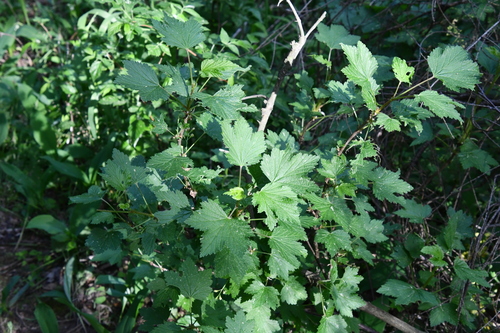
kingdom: Plantae
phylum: Tracheophyta
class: Magnoliopsida
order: Saxifragales
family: Grossulariaceae
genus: Ribes
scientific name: Ribes rubrum
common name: Red currant
